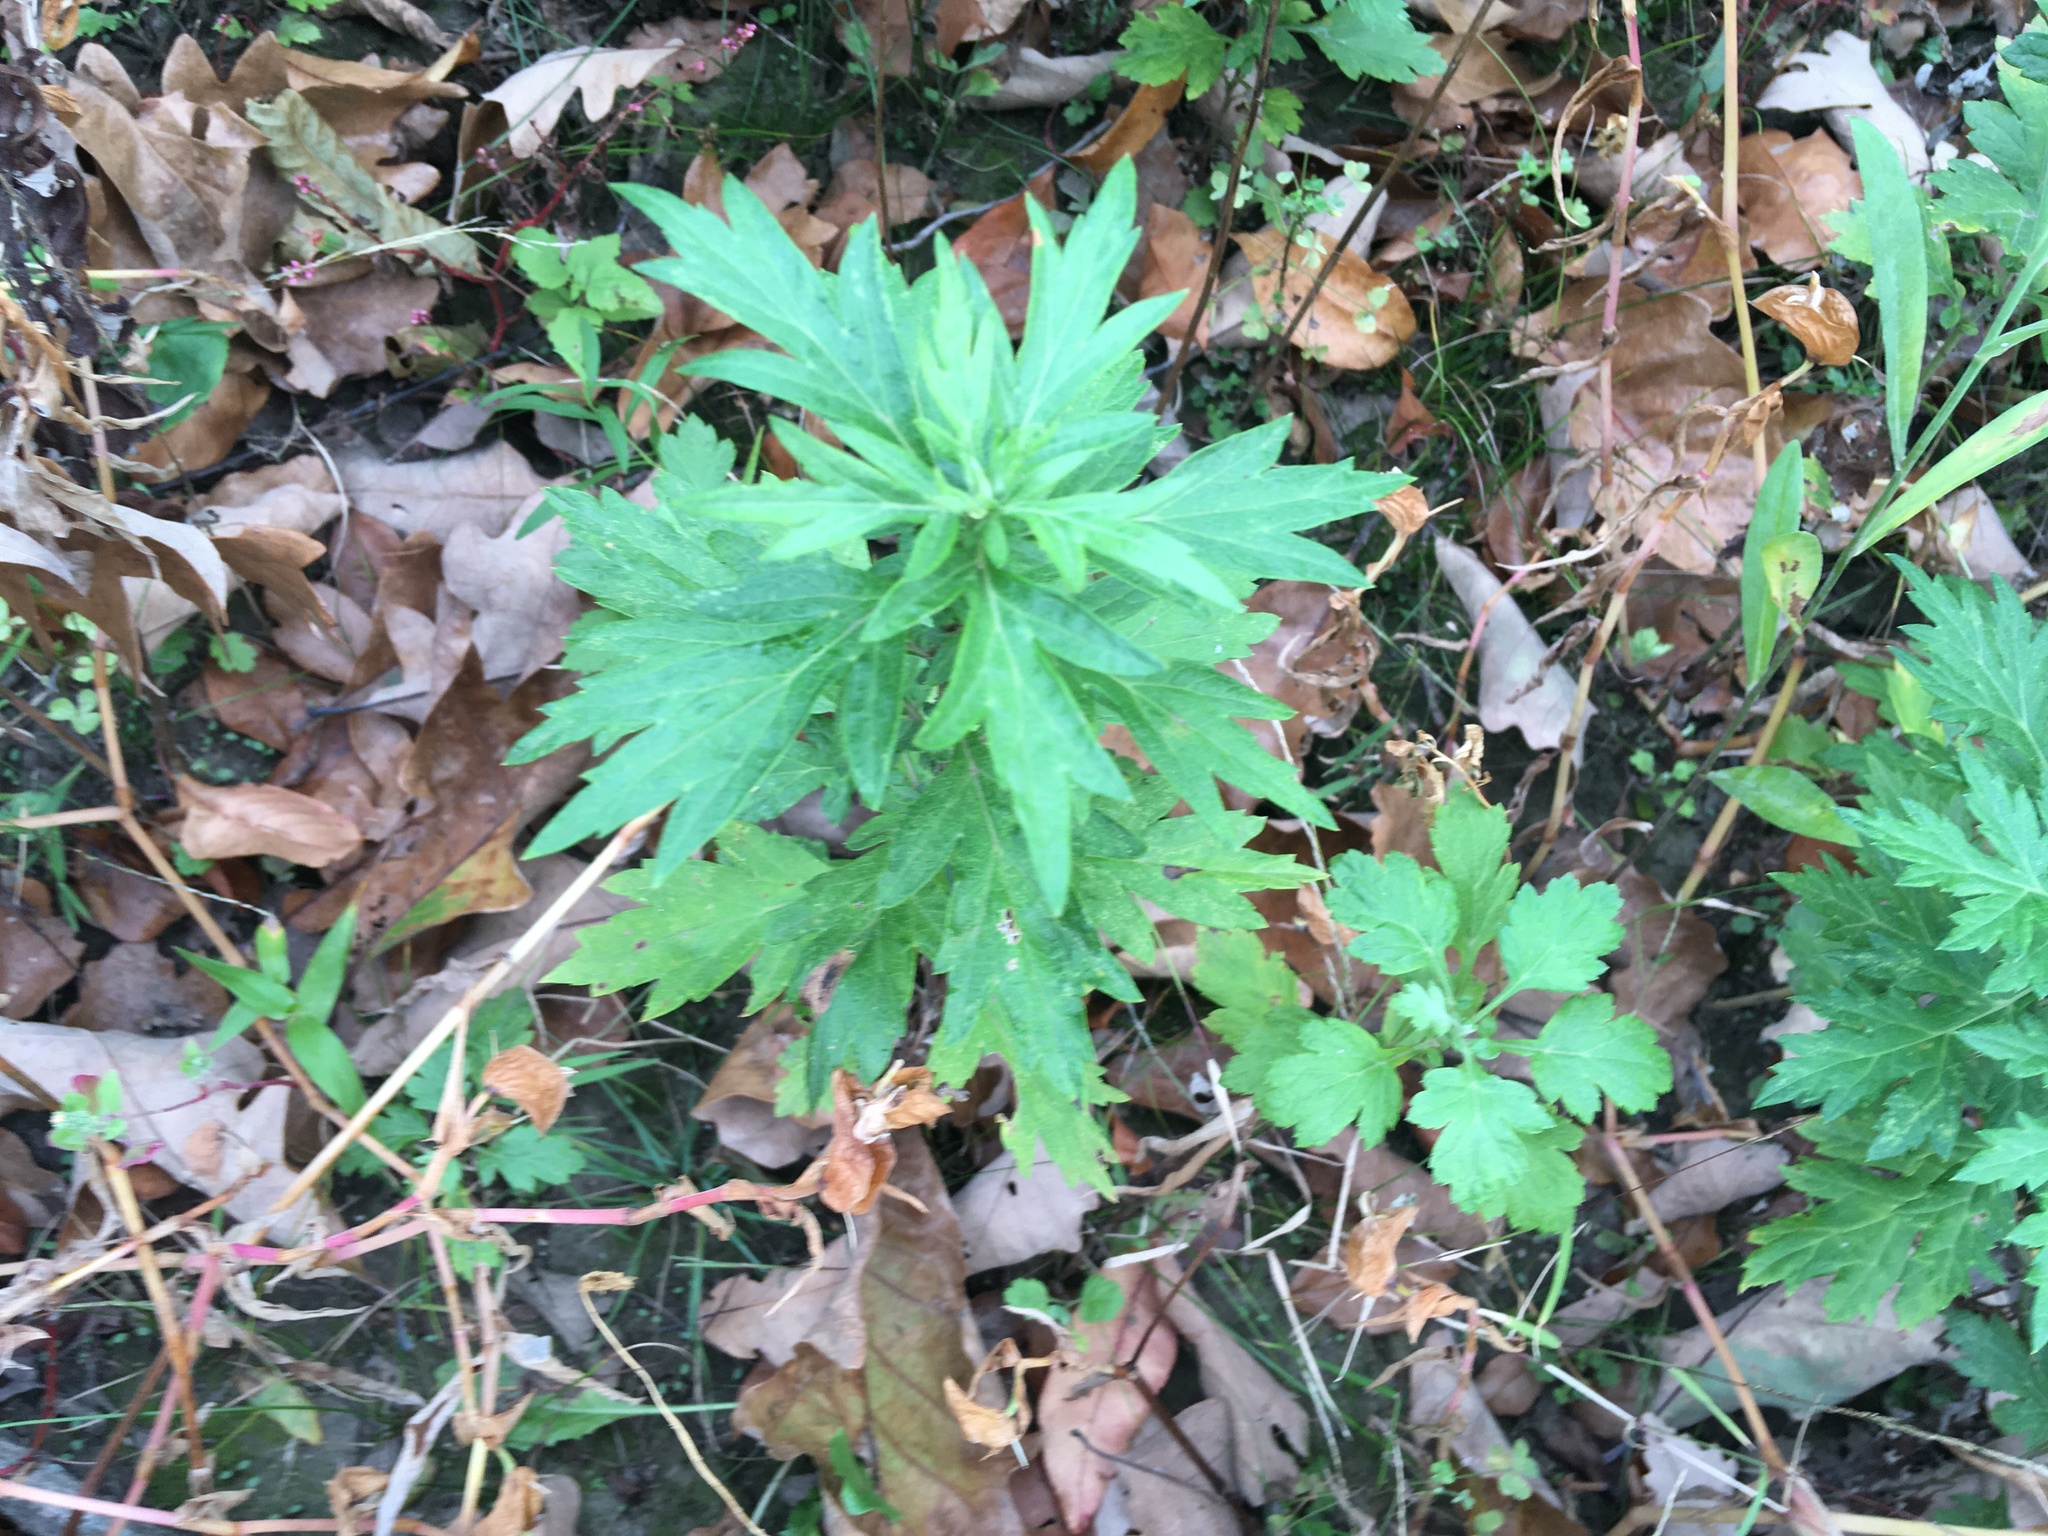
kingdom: Plantae
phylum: Tracheophyta
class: Magnoliopsida
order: Asterales
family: Asteraceae
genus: Artemisia
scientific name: Artemisia vulgaris
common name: Mugwort
